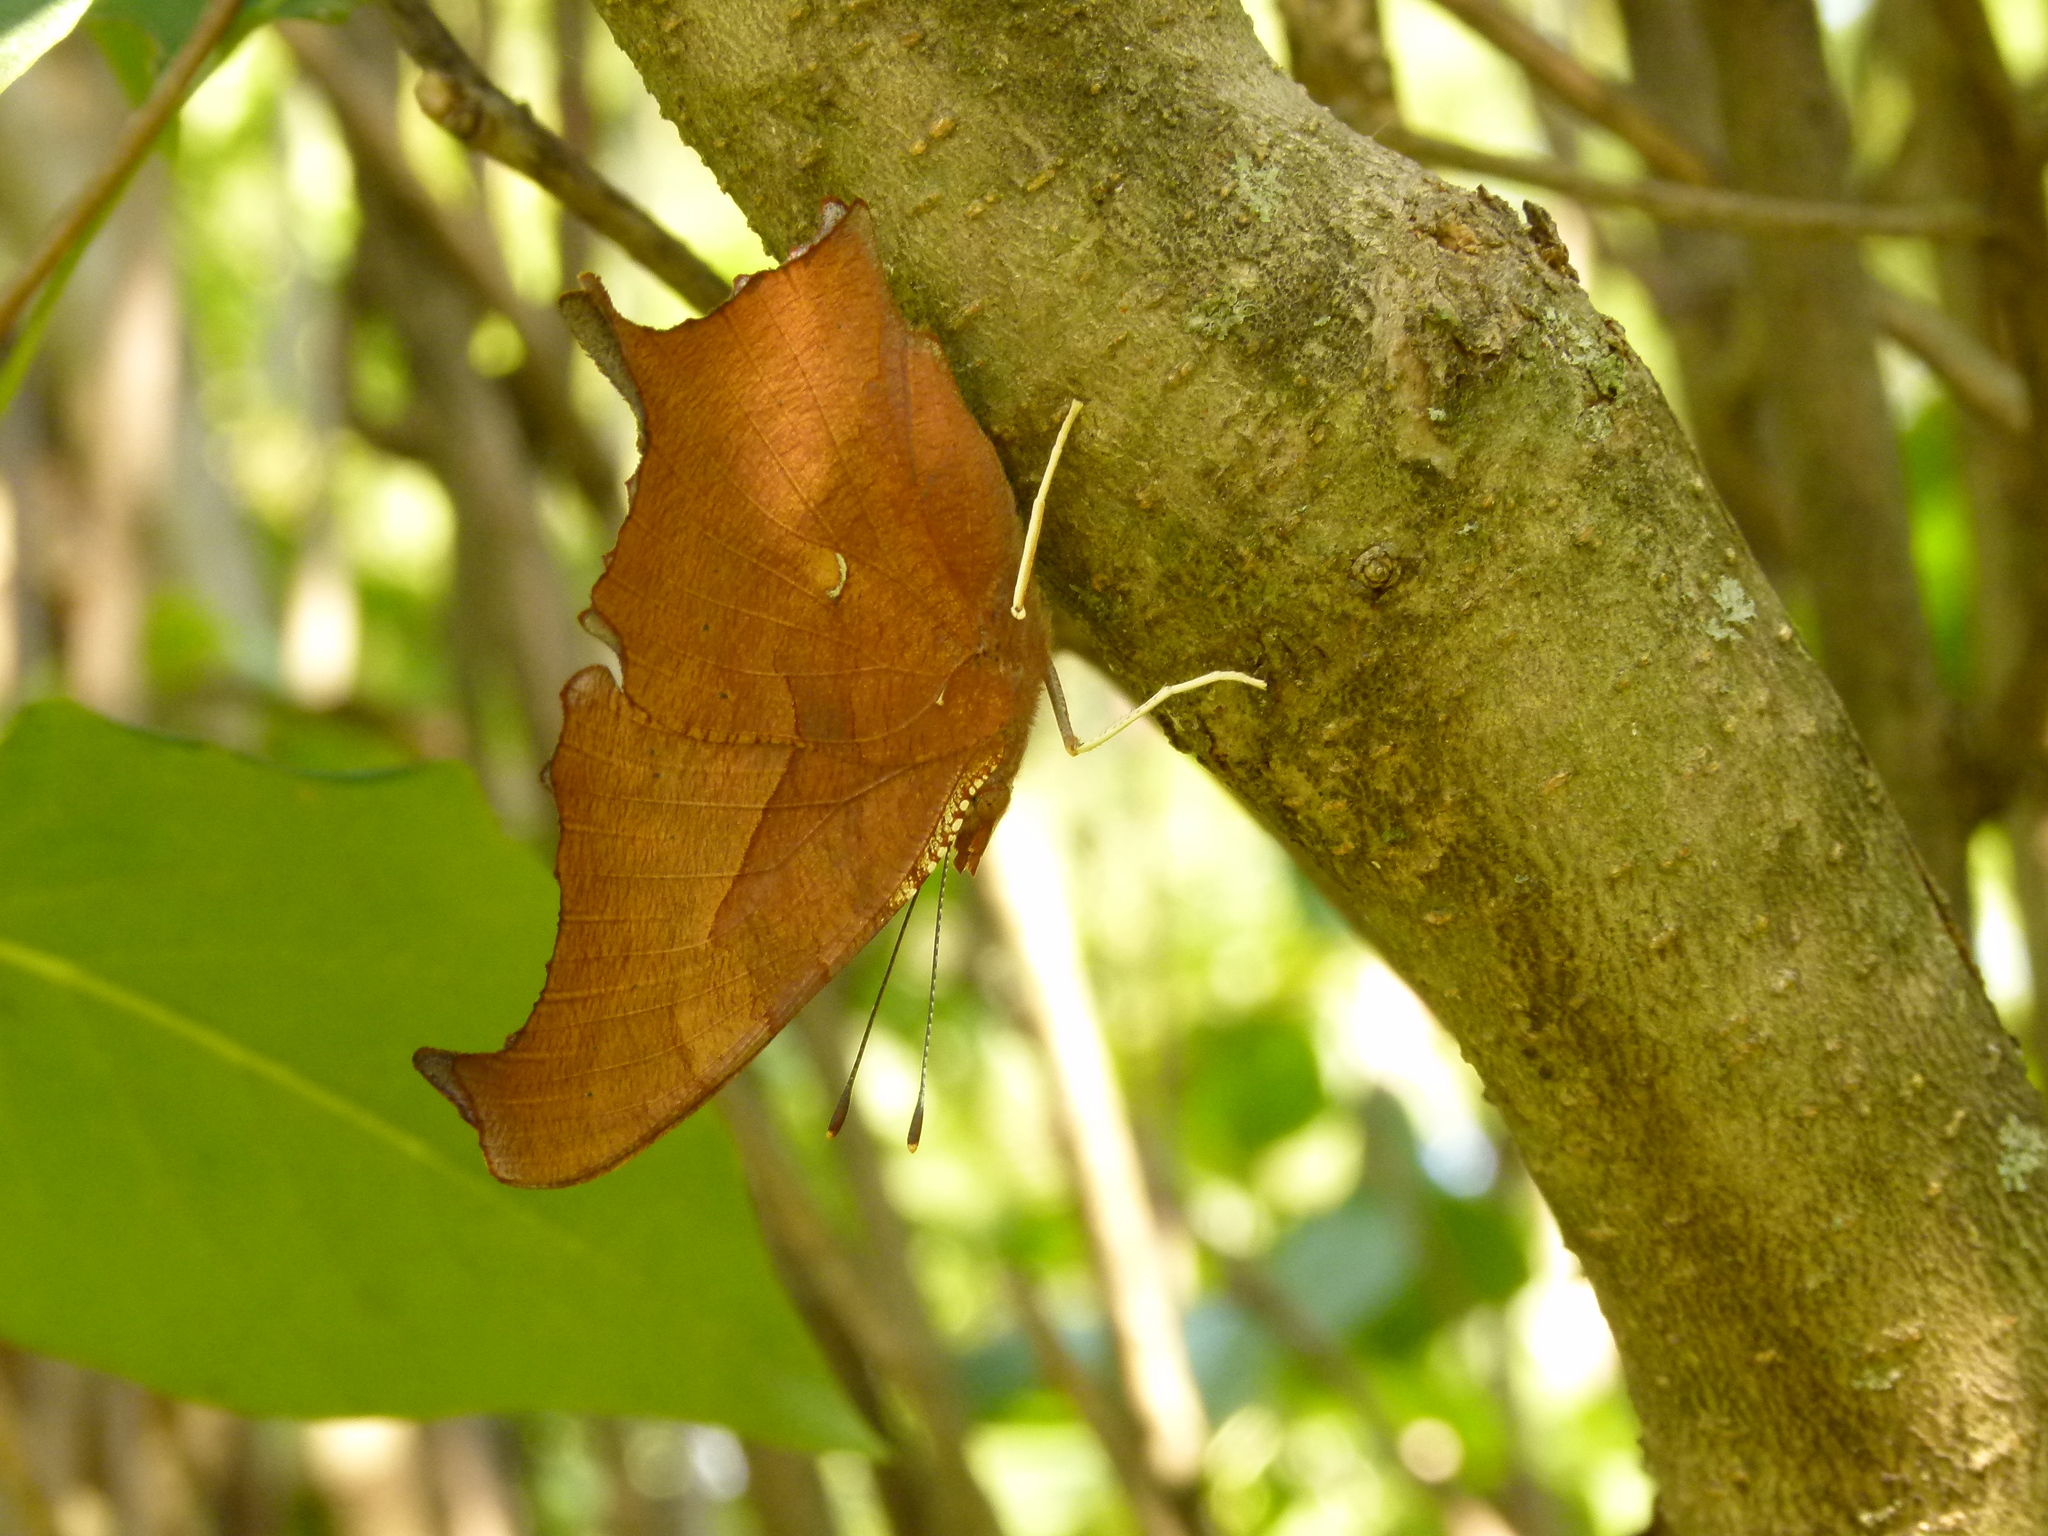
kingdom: Animalia
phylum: Arthropoda
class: Insecta
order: Lepidoptera
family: Nymphalidae
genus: Polygonia
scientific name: Polygonia interrogationis
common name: Question mark
